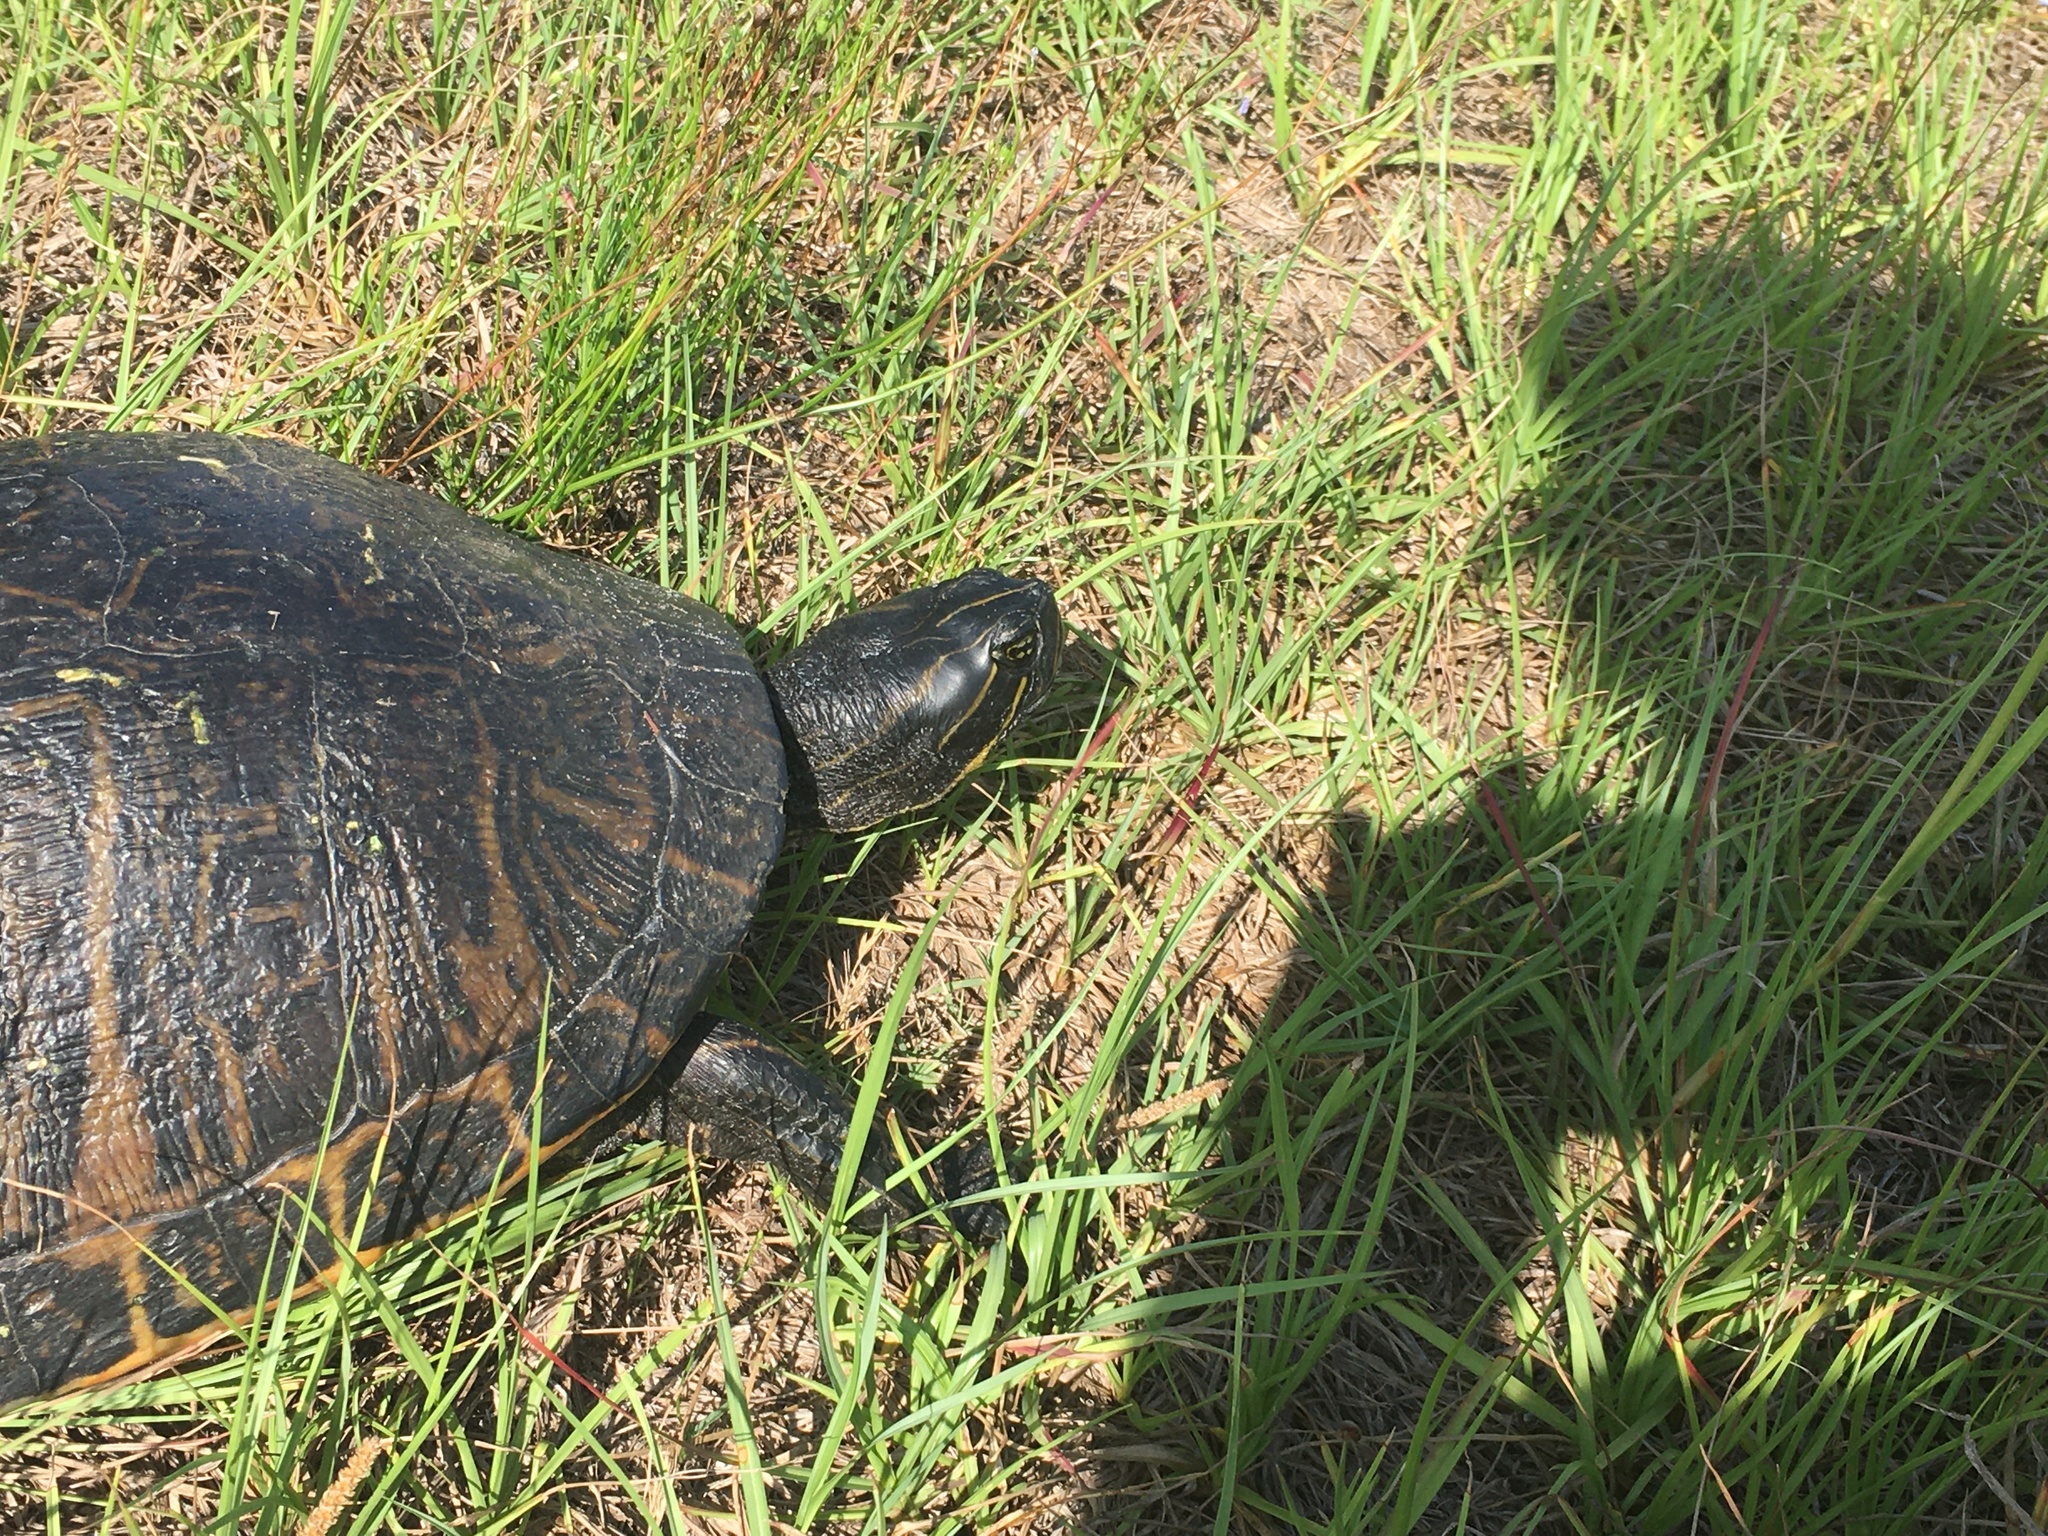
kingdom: Animalia
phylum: Chordata
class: Testudines
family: Emydidae
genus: Pseudemys
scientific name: Pseudemys concinna
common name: Eastern river cooter
